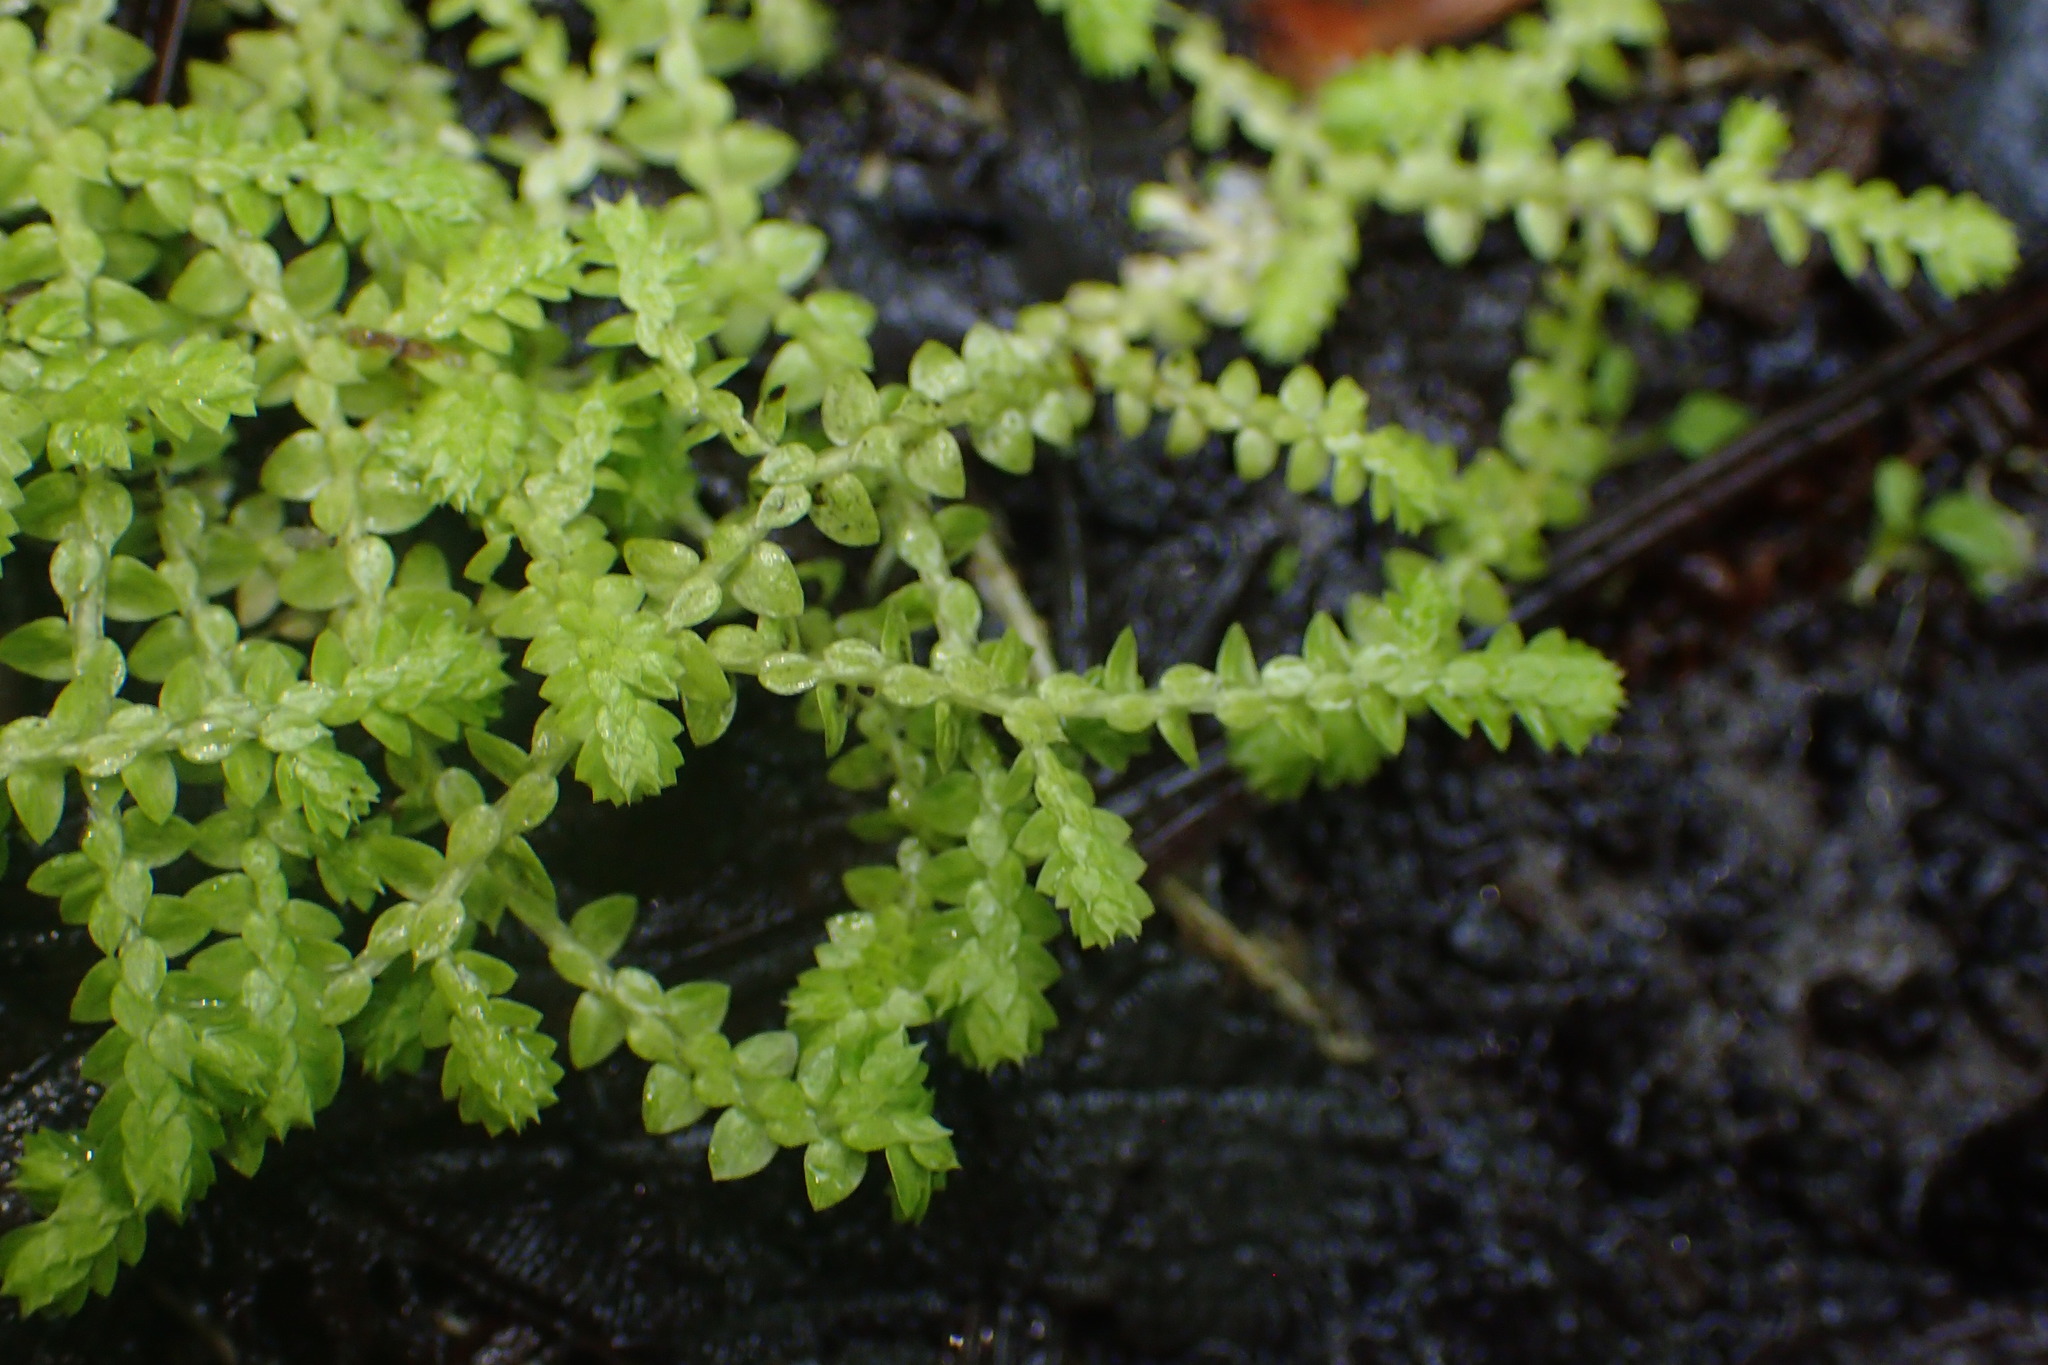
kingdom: Plantae
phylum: Tracheophyta
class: Lycopodiopsida
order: Selaginellales
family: Selaginellaceae
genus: Selaginella
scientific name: Selaginella apoda
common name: Creeping spikemoss
